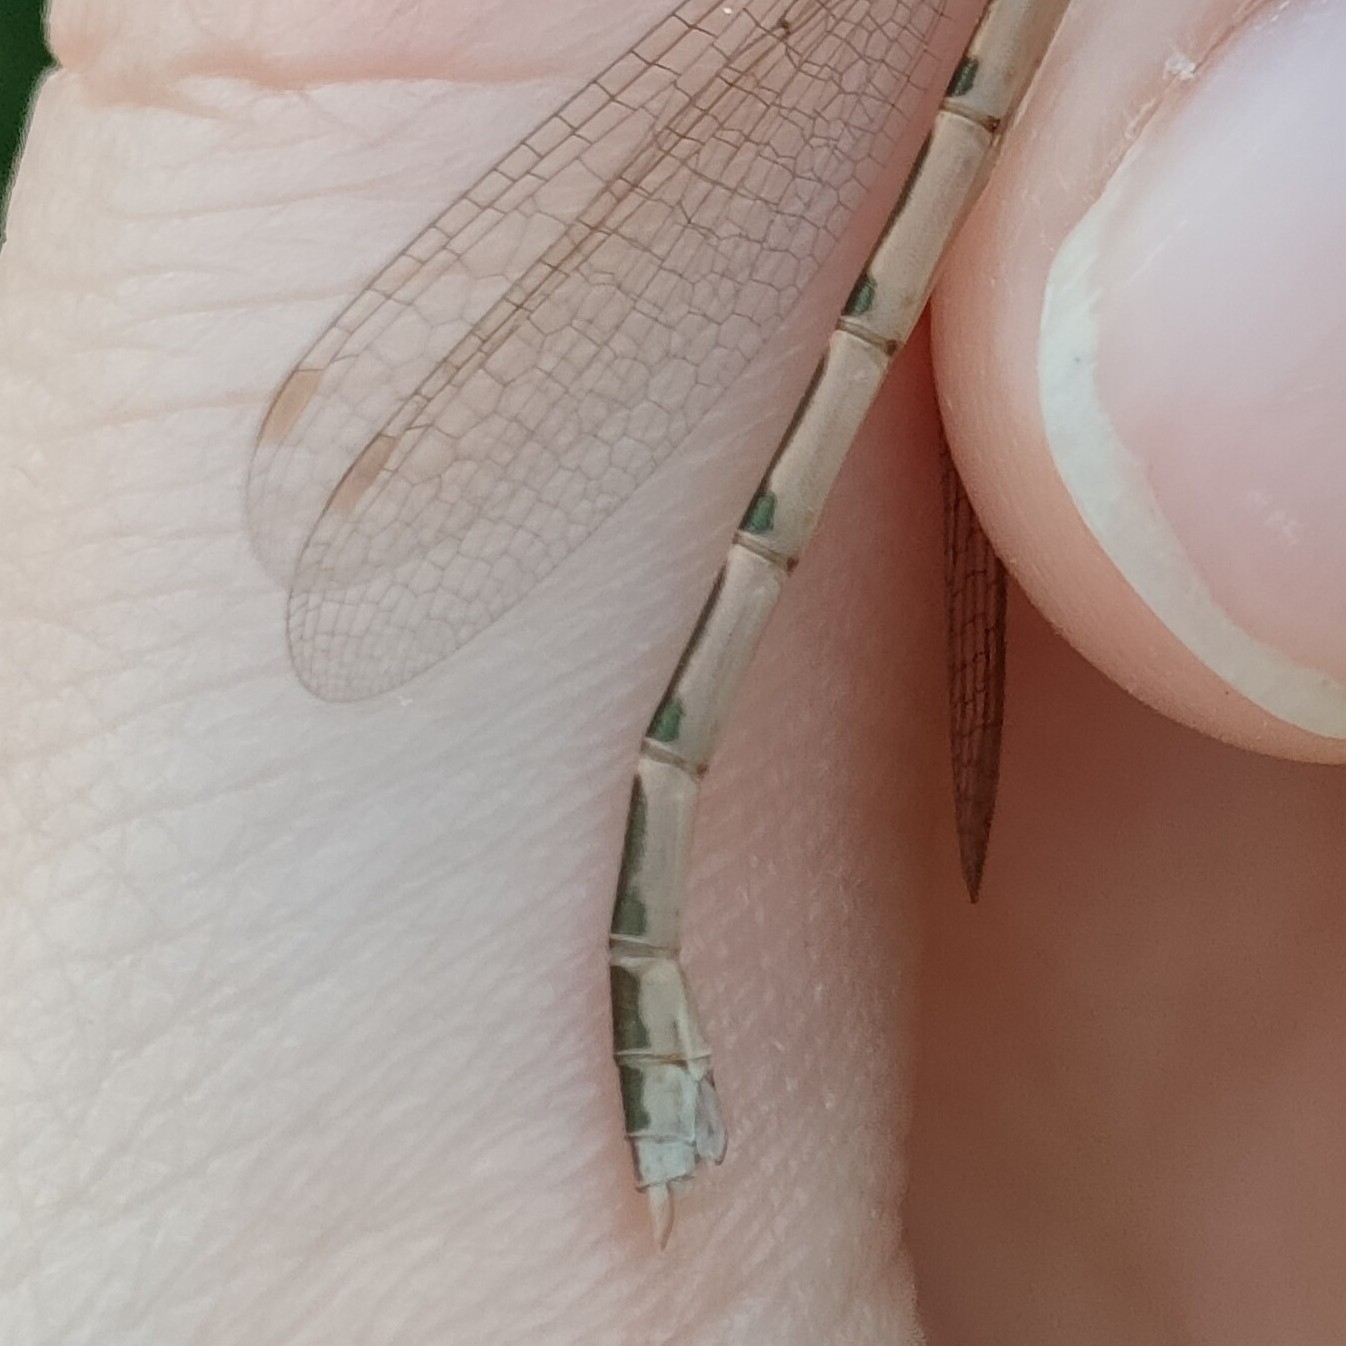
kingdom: Animalia
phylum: Arthropoda
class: Insecta
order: Odonata
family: Lestidae
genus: Sympecma
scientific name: Sympecma fusca
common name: Common winter damsel
